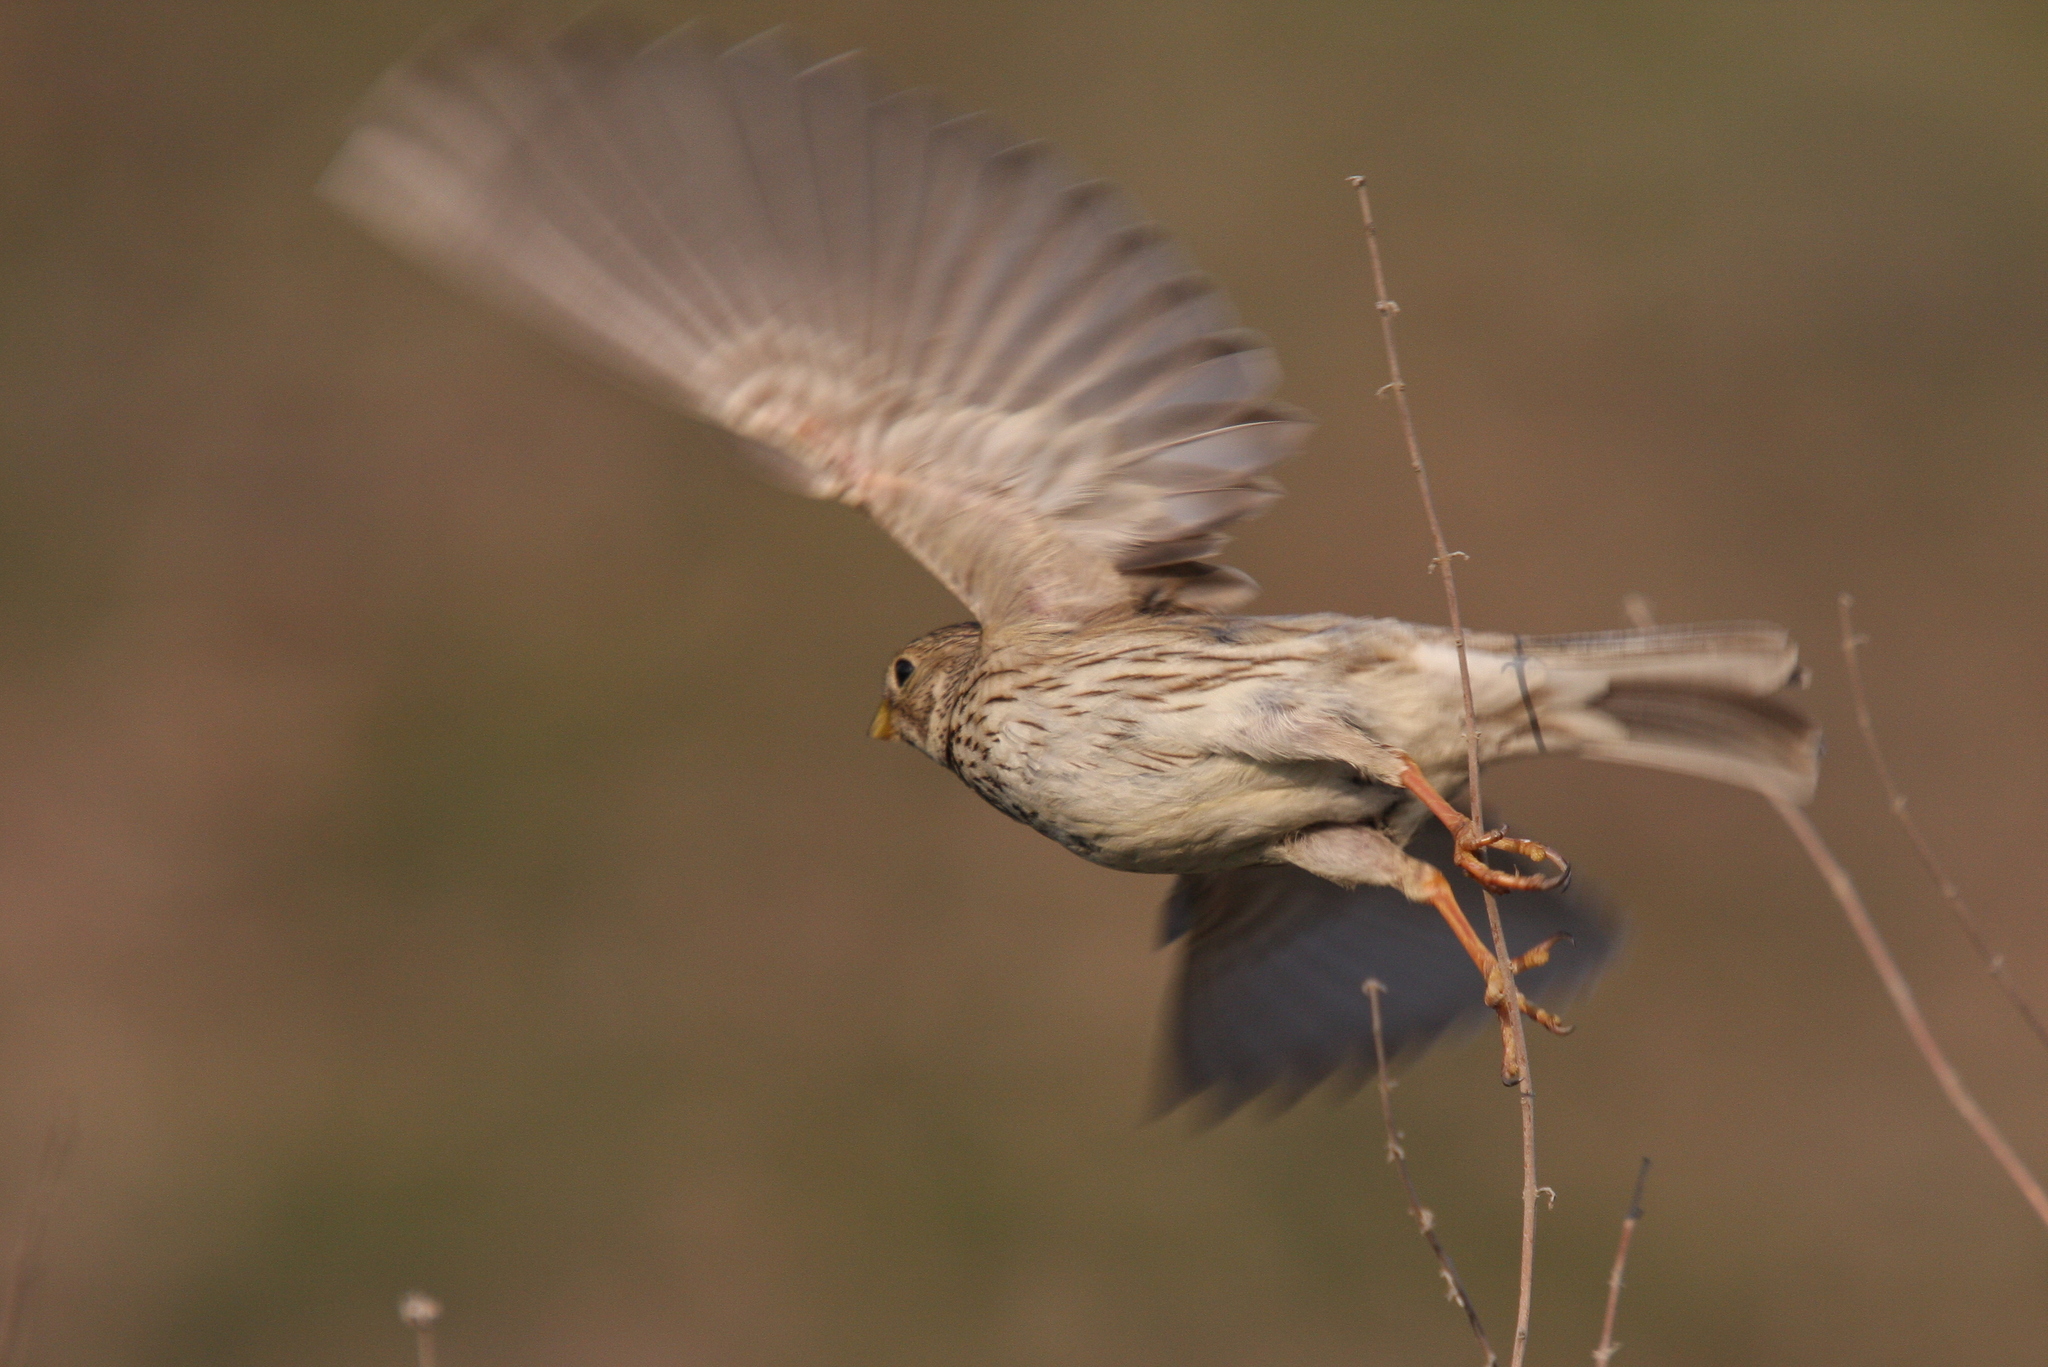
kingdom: Animalia
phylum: Chordata
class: Aves
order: Passeriformes
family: Emberizidae
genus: Emberiza
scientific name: Emberiza calandra
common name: Corn bunting
